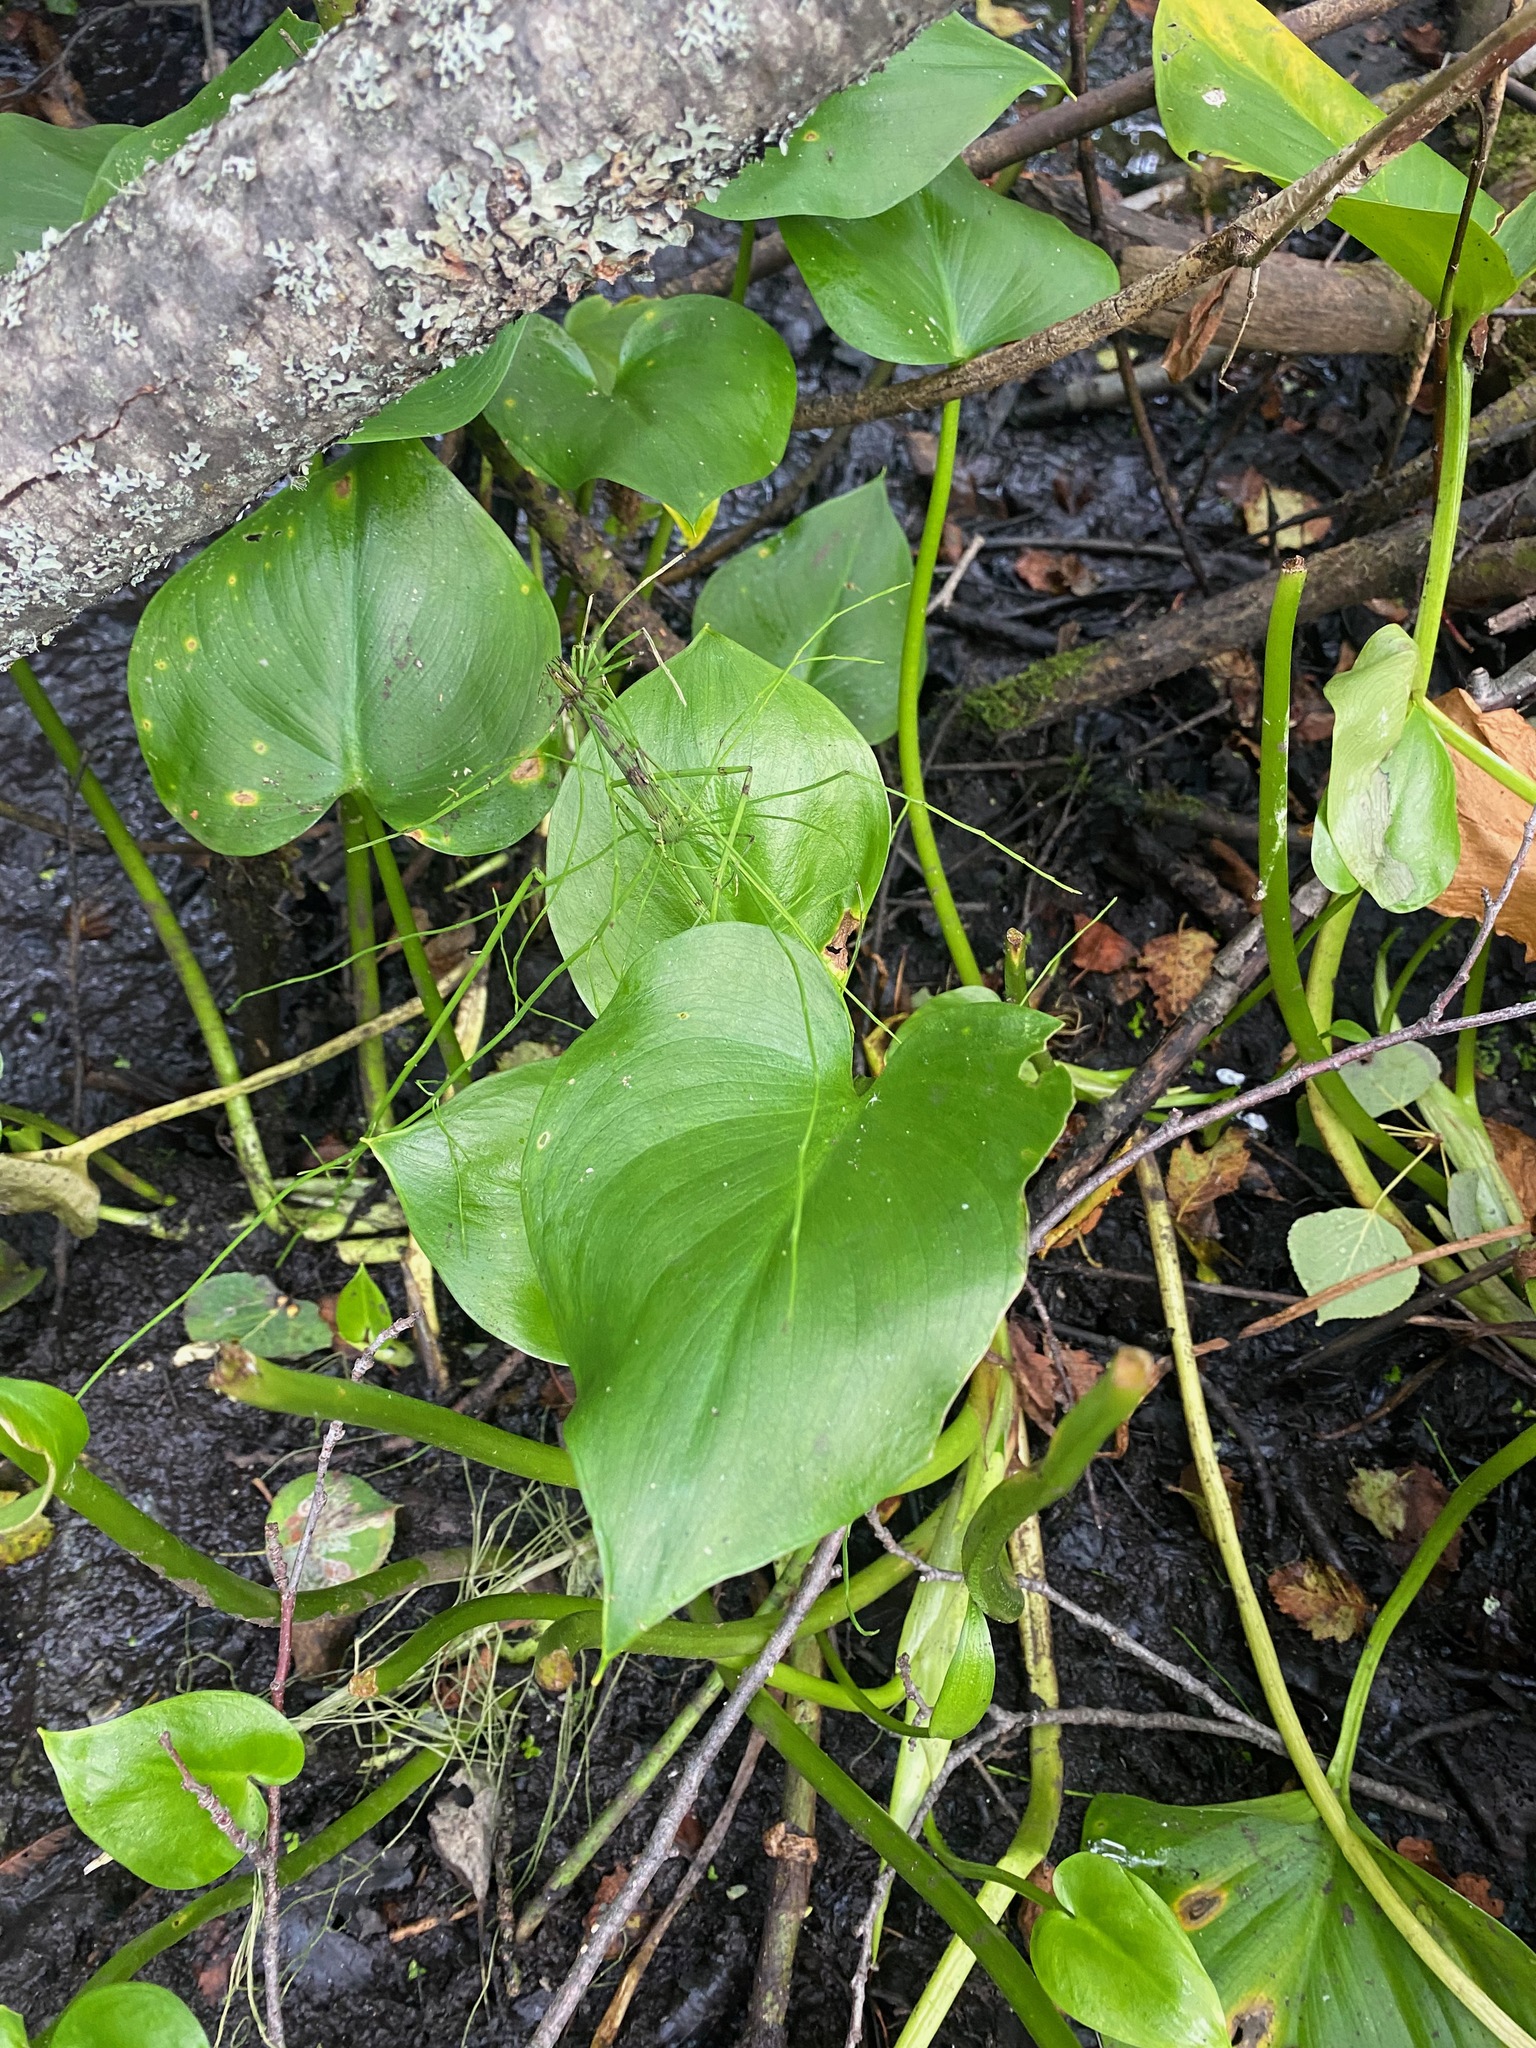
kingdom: Plantae
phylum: Tracheophyta
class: Liliopsida
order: Alismatales
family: Araceae
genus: Calla
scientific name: Calla palustris
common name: Bog arum
